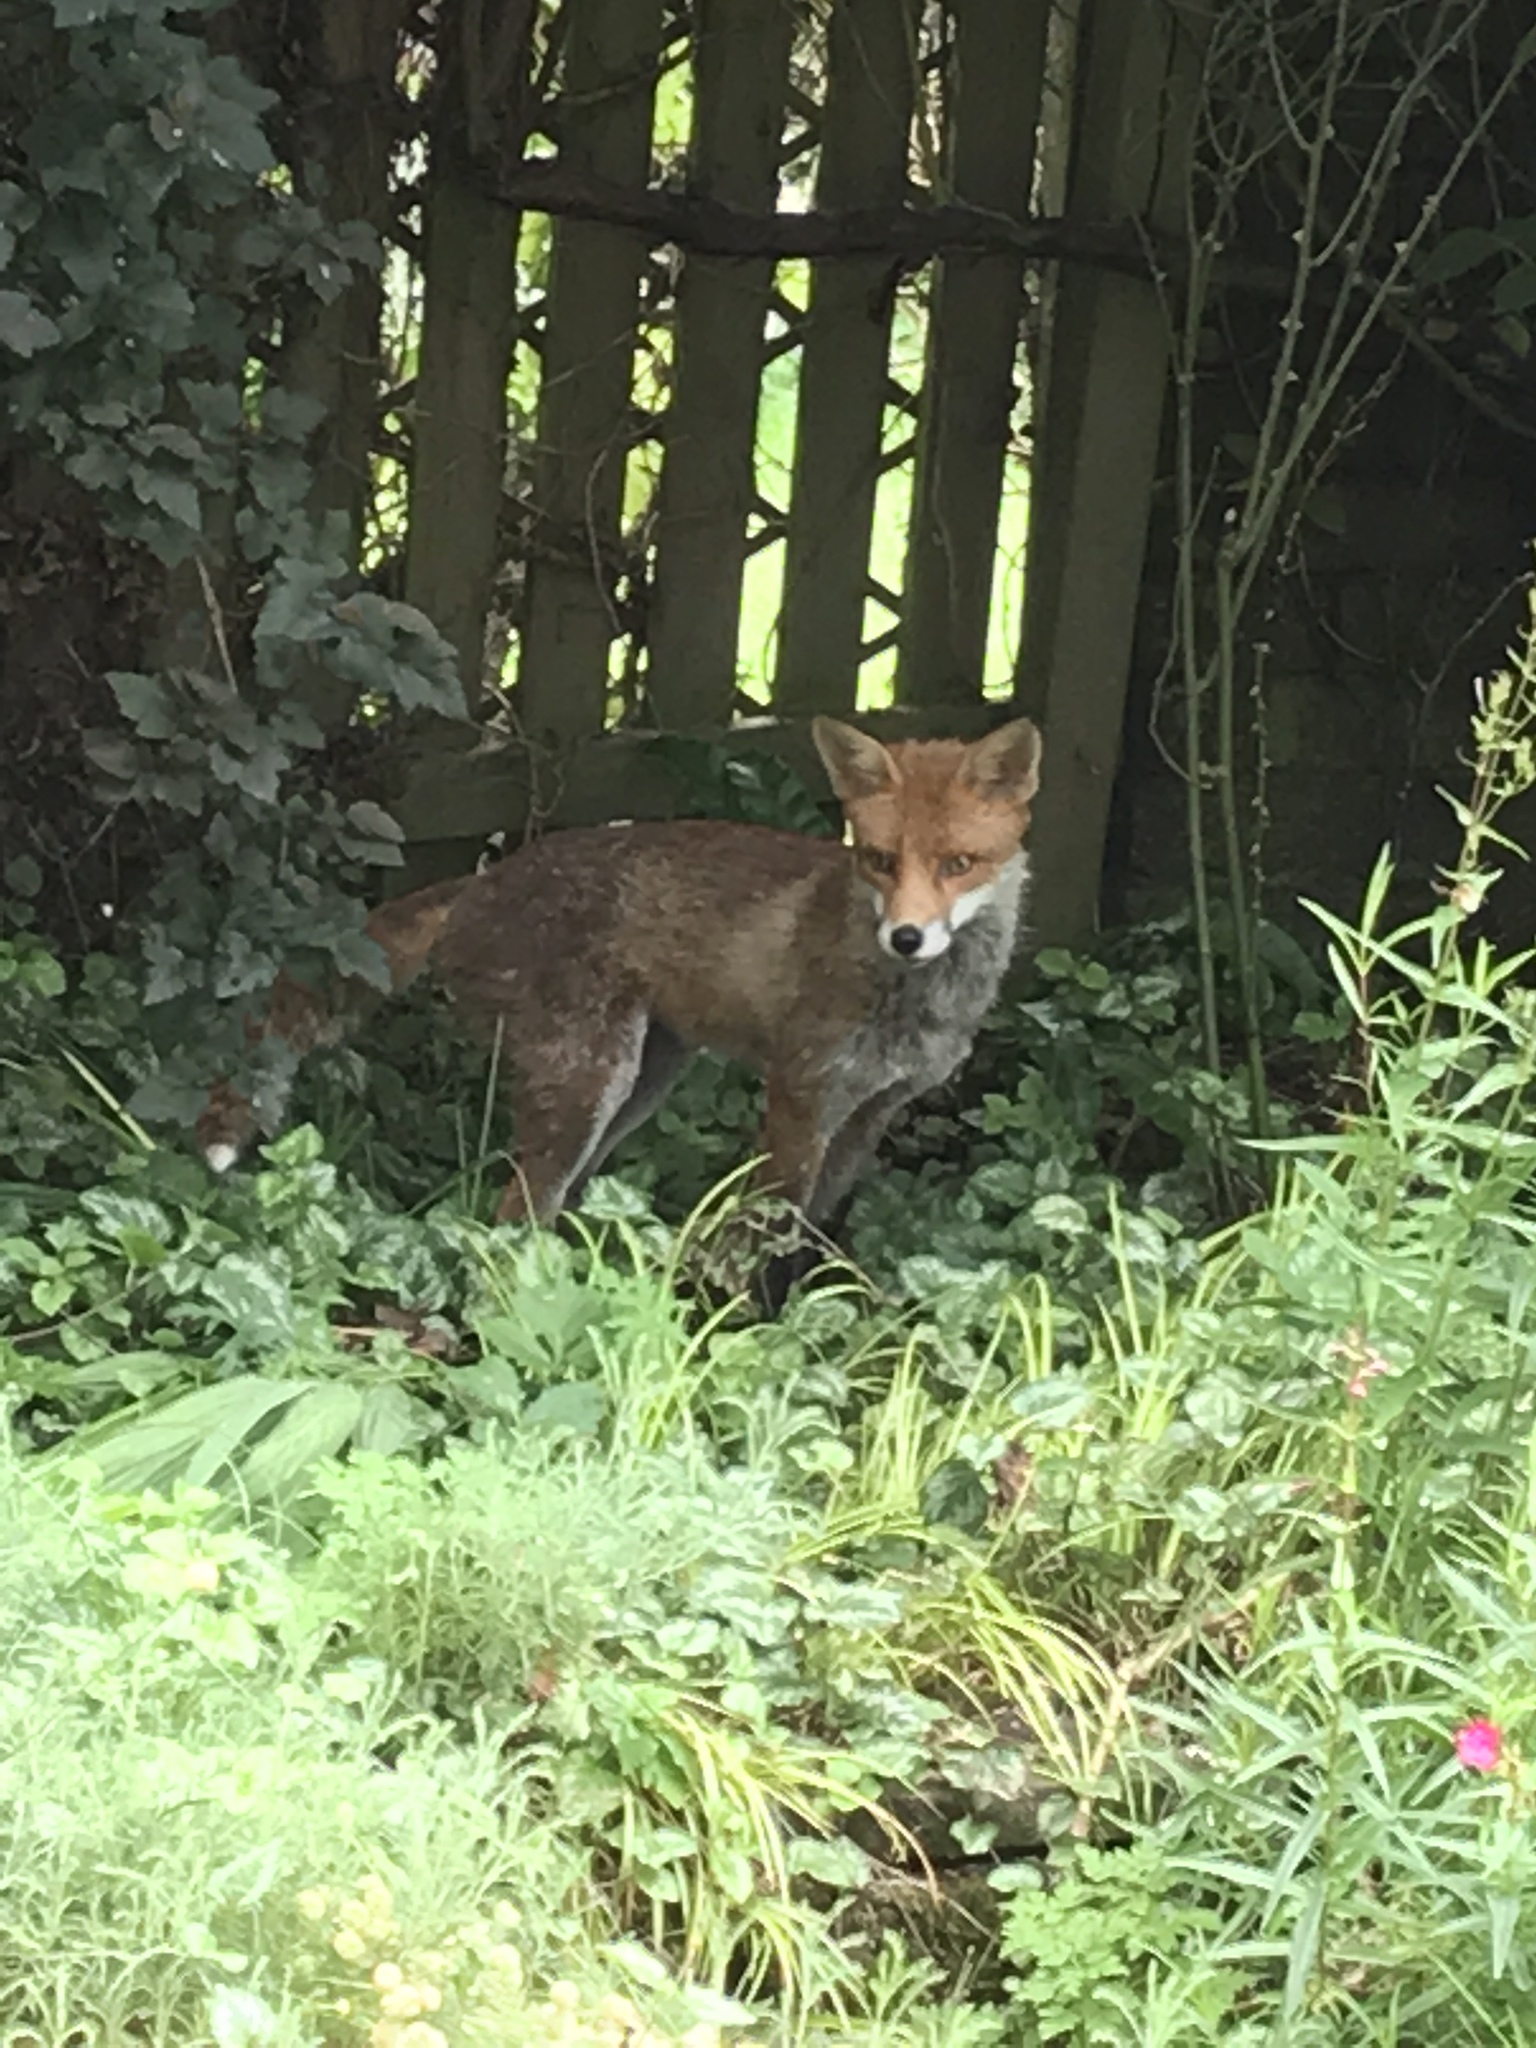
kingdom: Animalia
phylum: Chordata
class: Mammalia
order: Carnivora
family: Canidae
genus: Vulpes
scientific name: Vulpes vulpes
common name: Red fox
